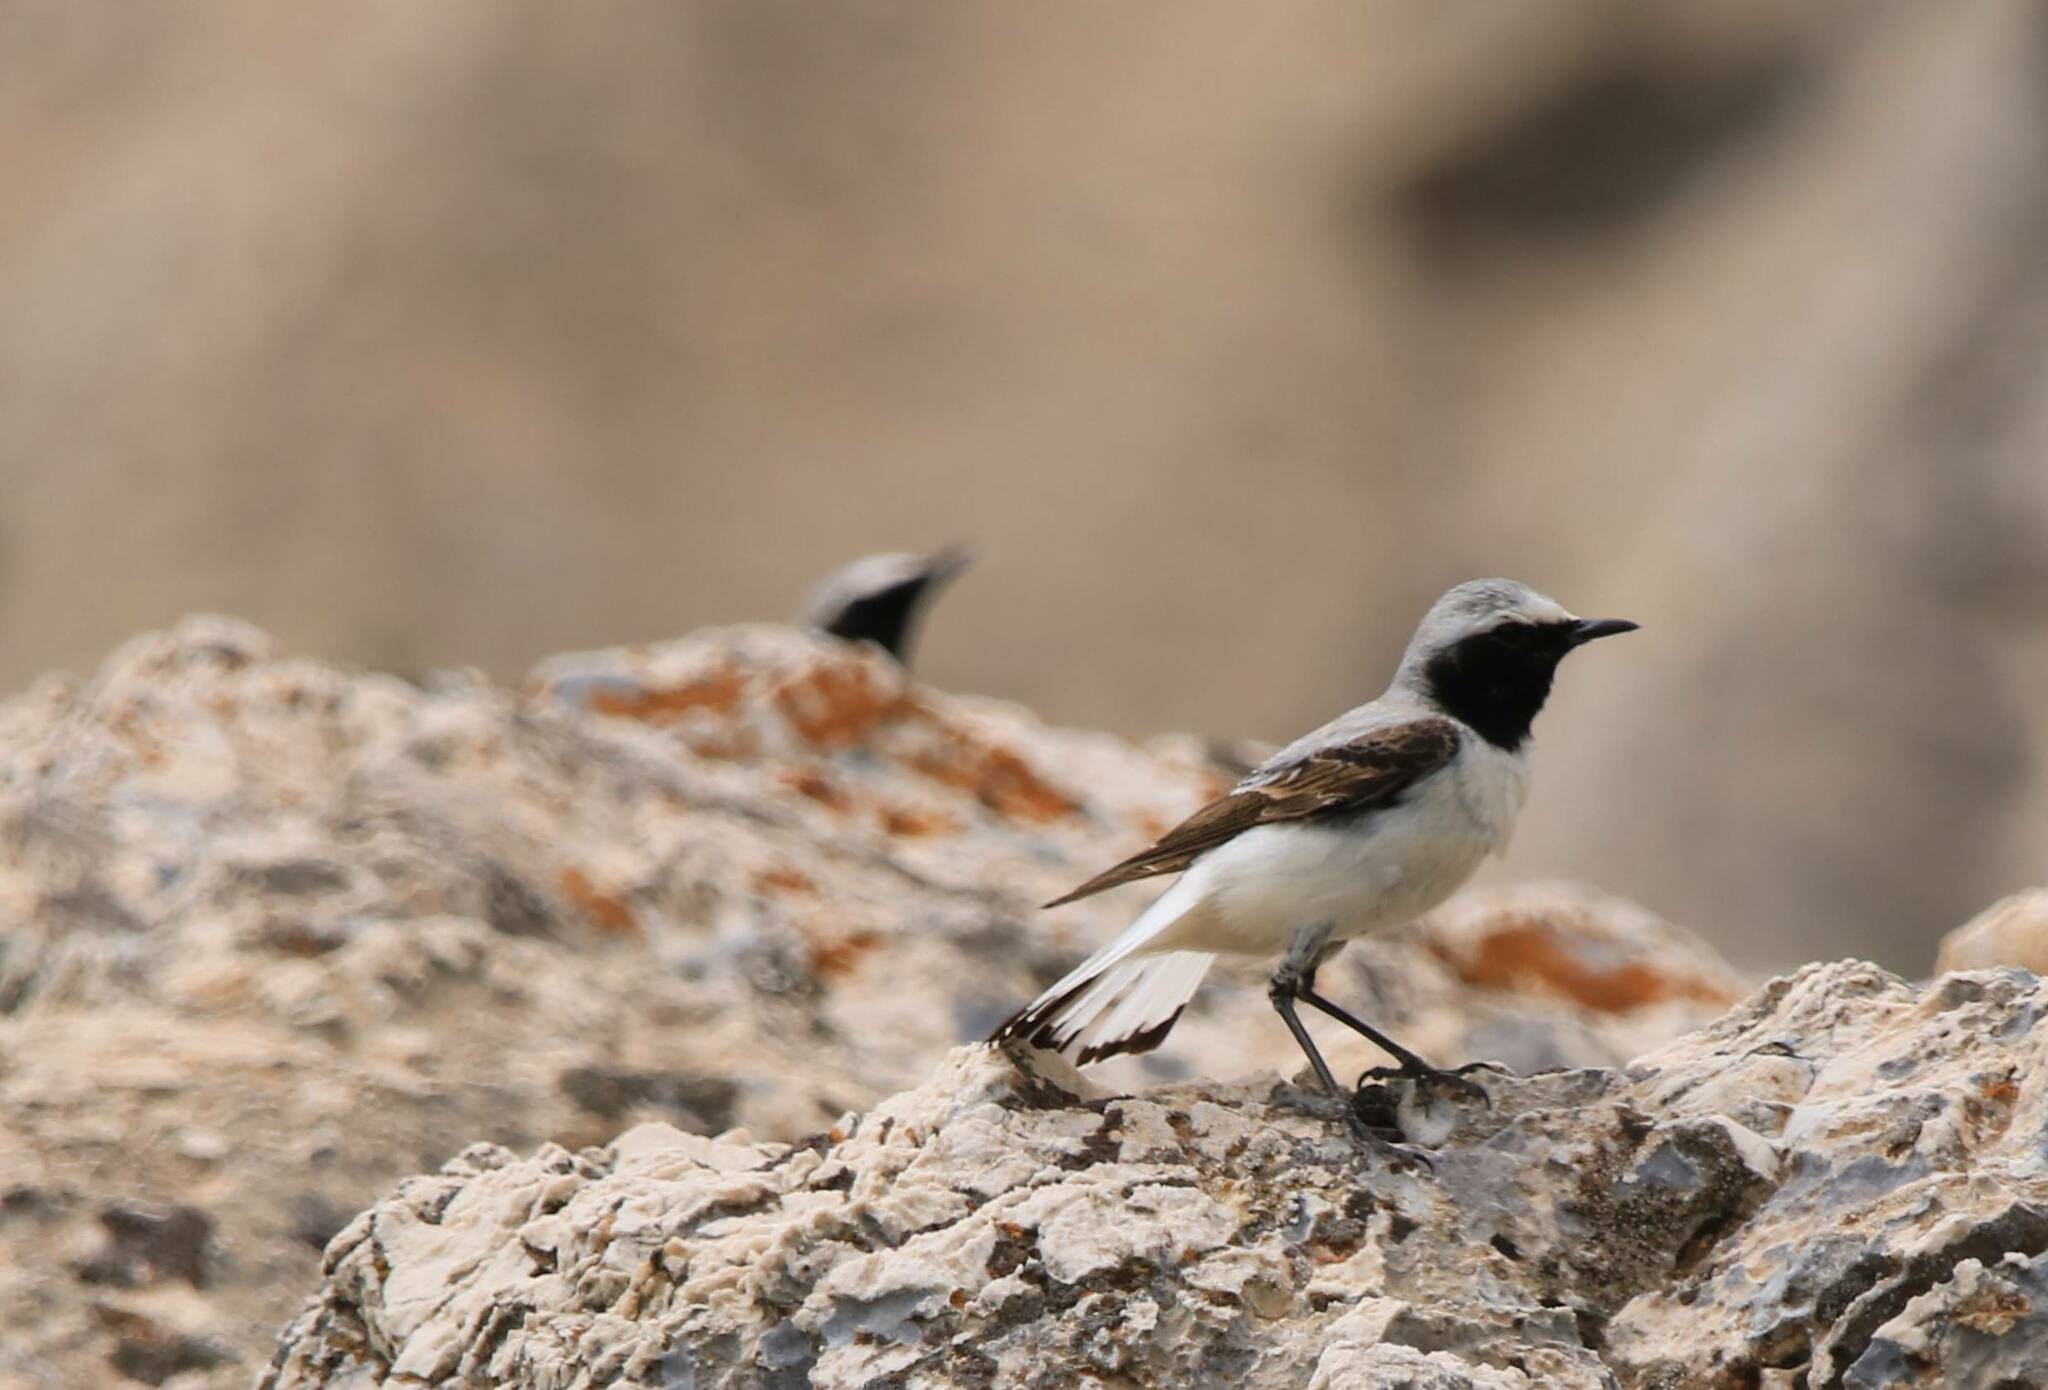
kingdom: Animalia
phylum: Chordata
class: Aves
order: Passeriformes
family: Muscicapidae
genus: Oenanthe
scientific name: Oenanthe oenanthe
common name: Northern wheatear
